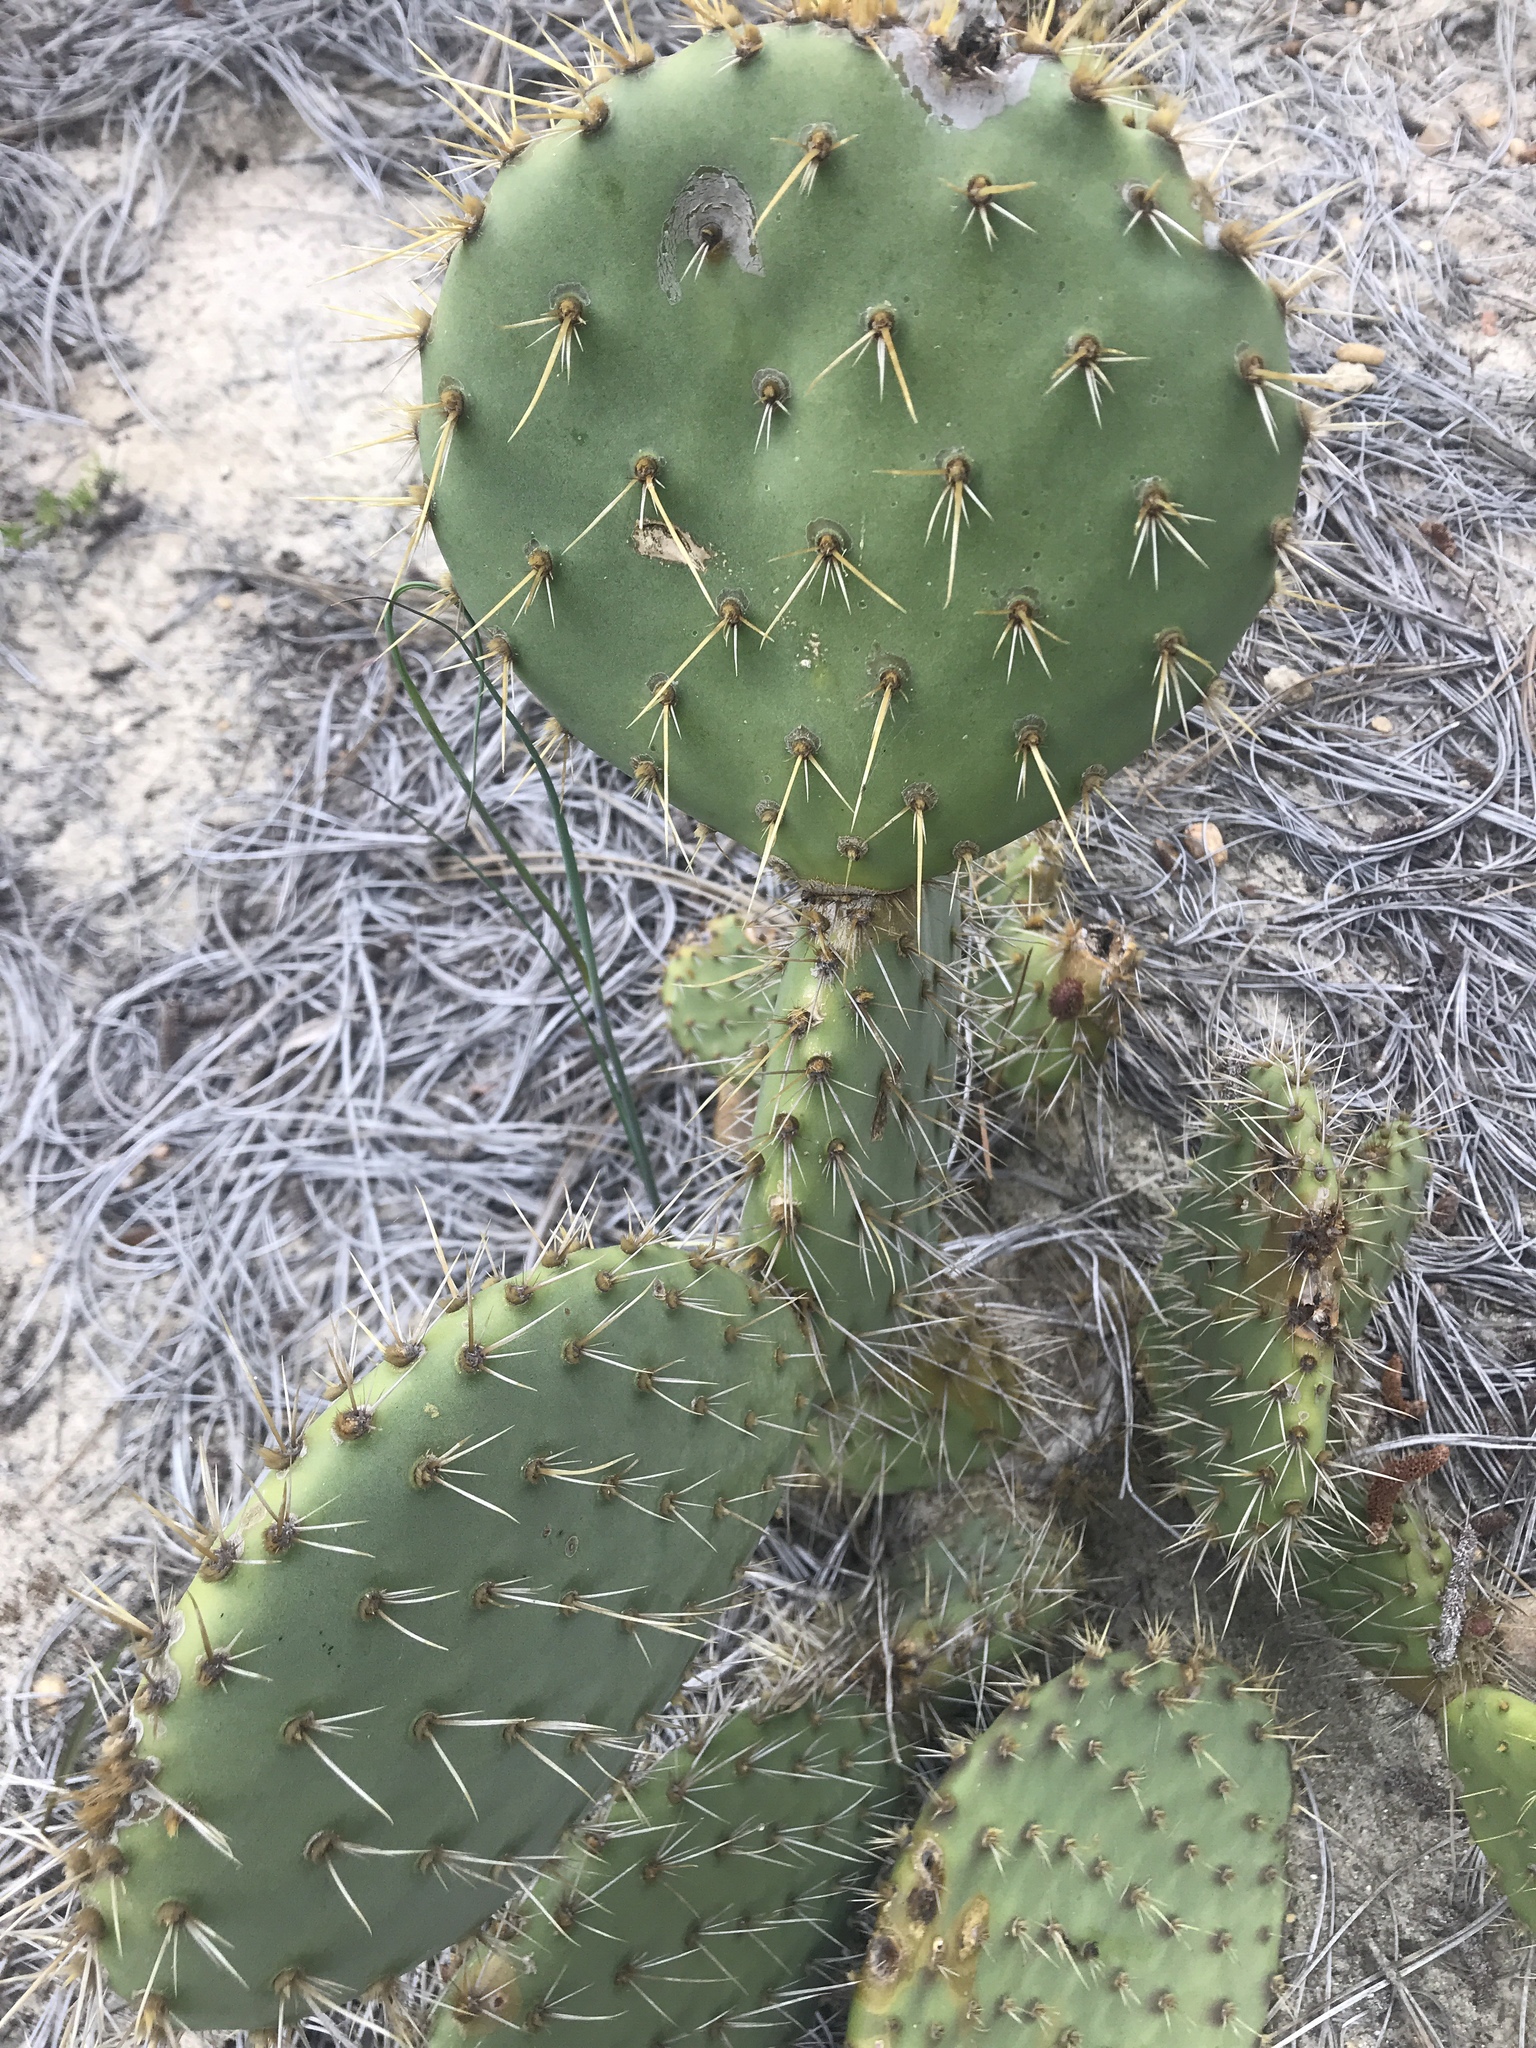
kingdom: Plantae
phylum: Tracheophyta
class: Magnoliopsida
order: Caryophyllales
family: Cactaceae
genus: Opuntia
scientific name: Opuntia littoralis
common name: Coastal prickly-pear
